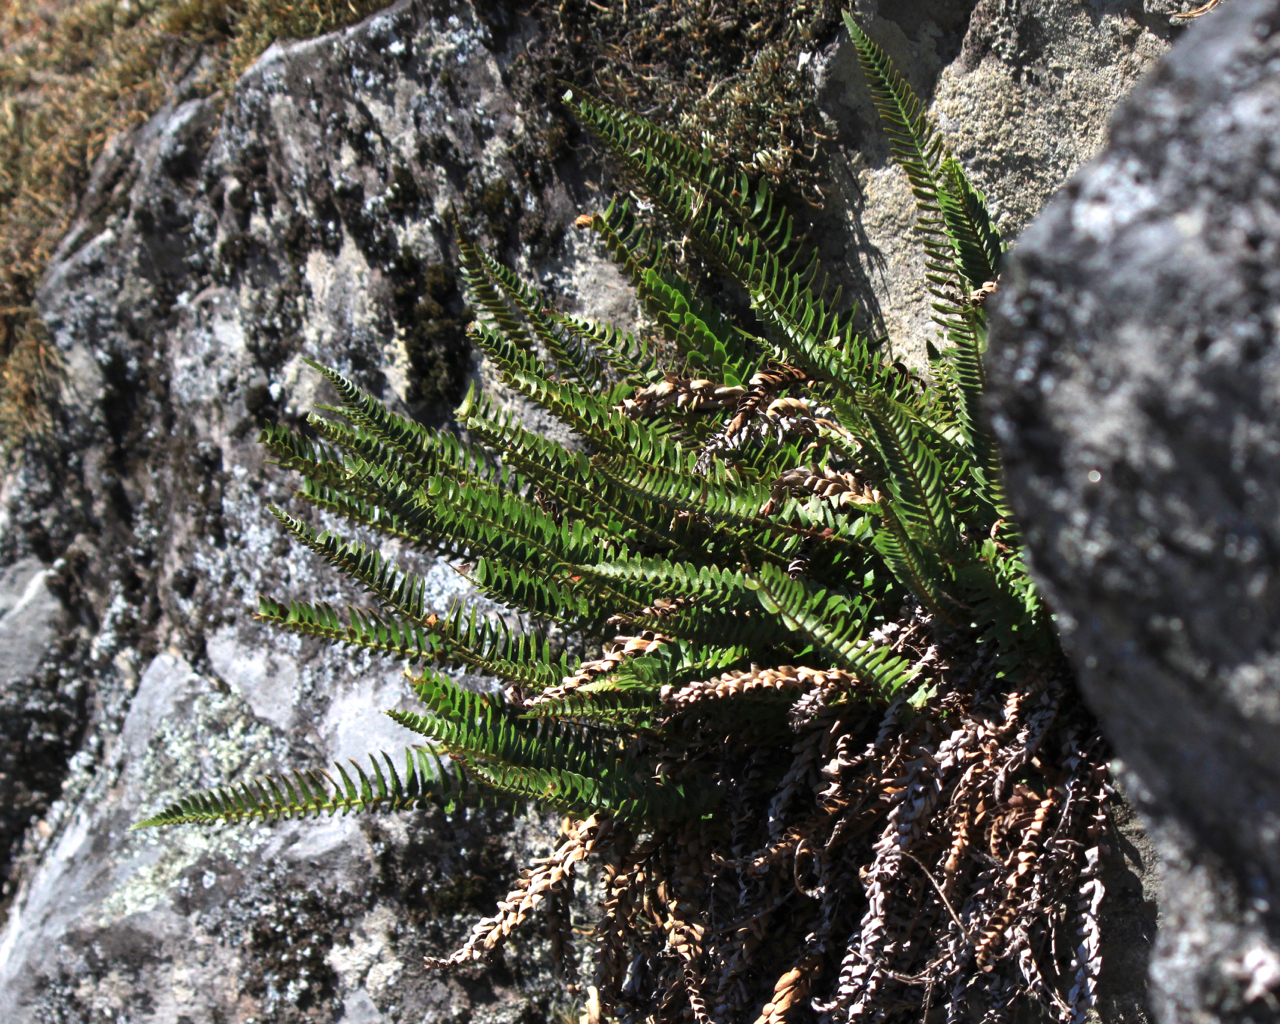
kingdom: Plantae
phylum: Tracheophyta
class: Polypodiopsida
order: Polypodiales
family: Dryopteridaceae
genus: Polystichum
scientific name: Polystichum imbricans
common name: Dwarf western sword fern
